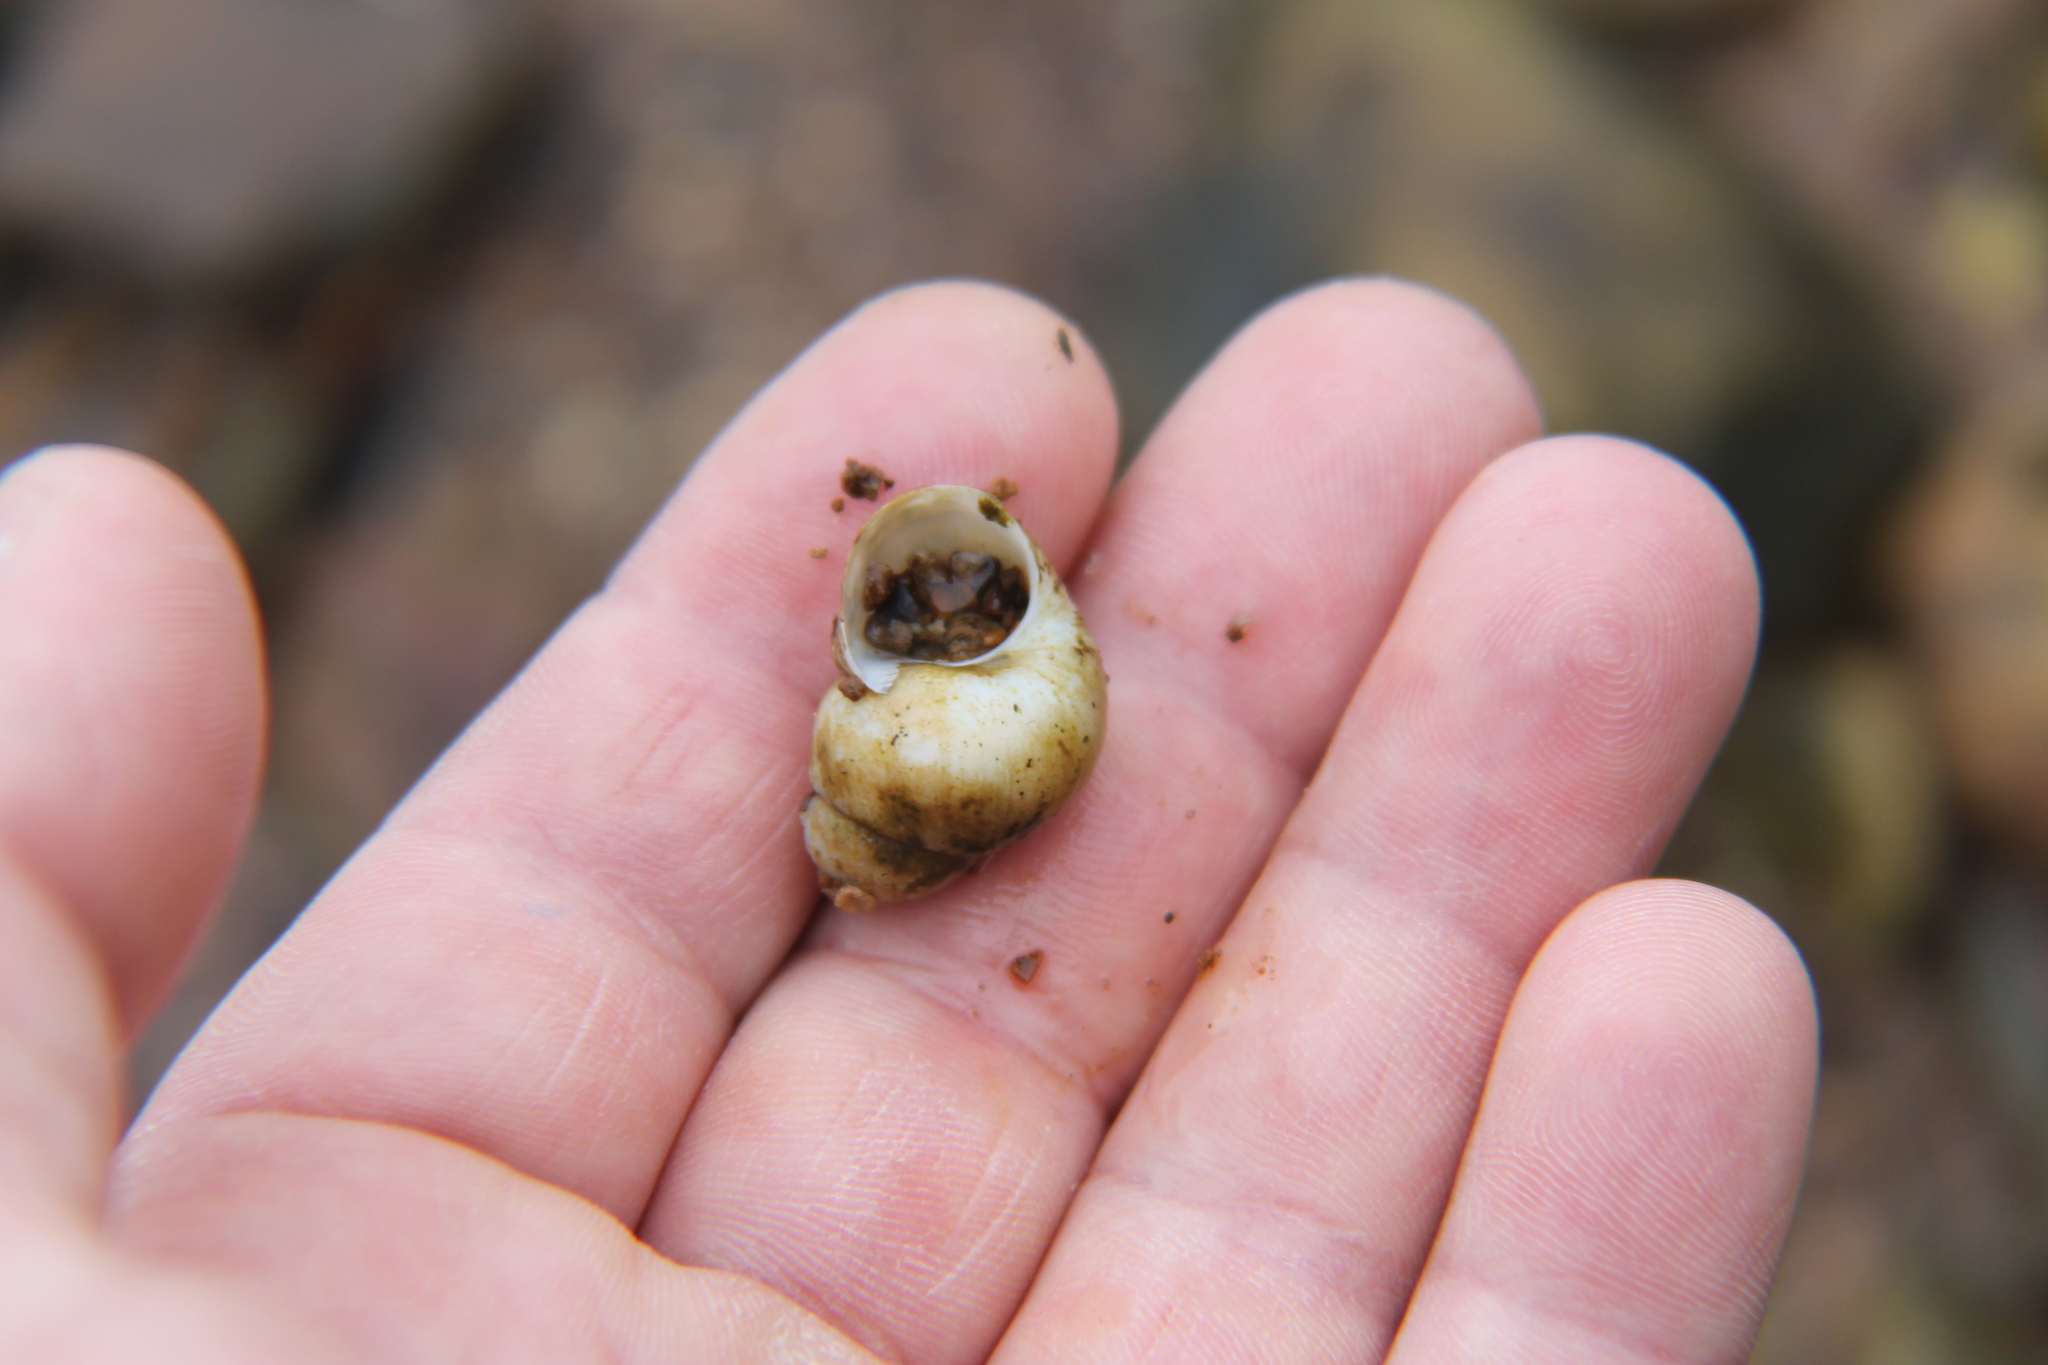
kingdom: Animalia
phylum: Mollusca
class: Gastropoda
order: Architaenioglossa
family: Viviparidae
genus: Callinina
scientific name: Callinina subpurpurea
